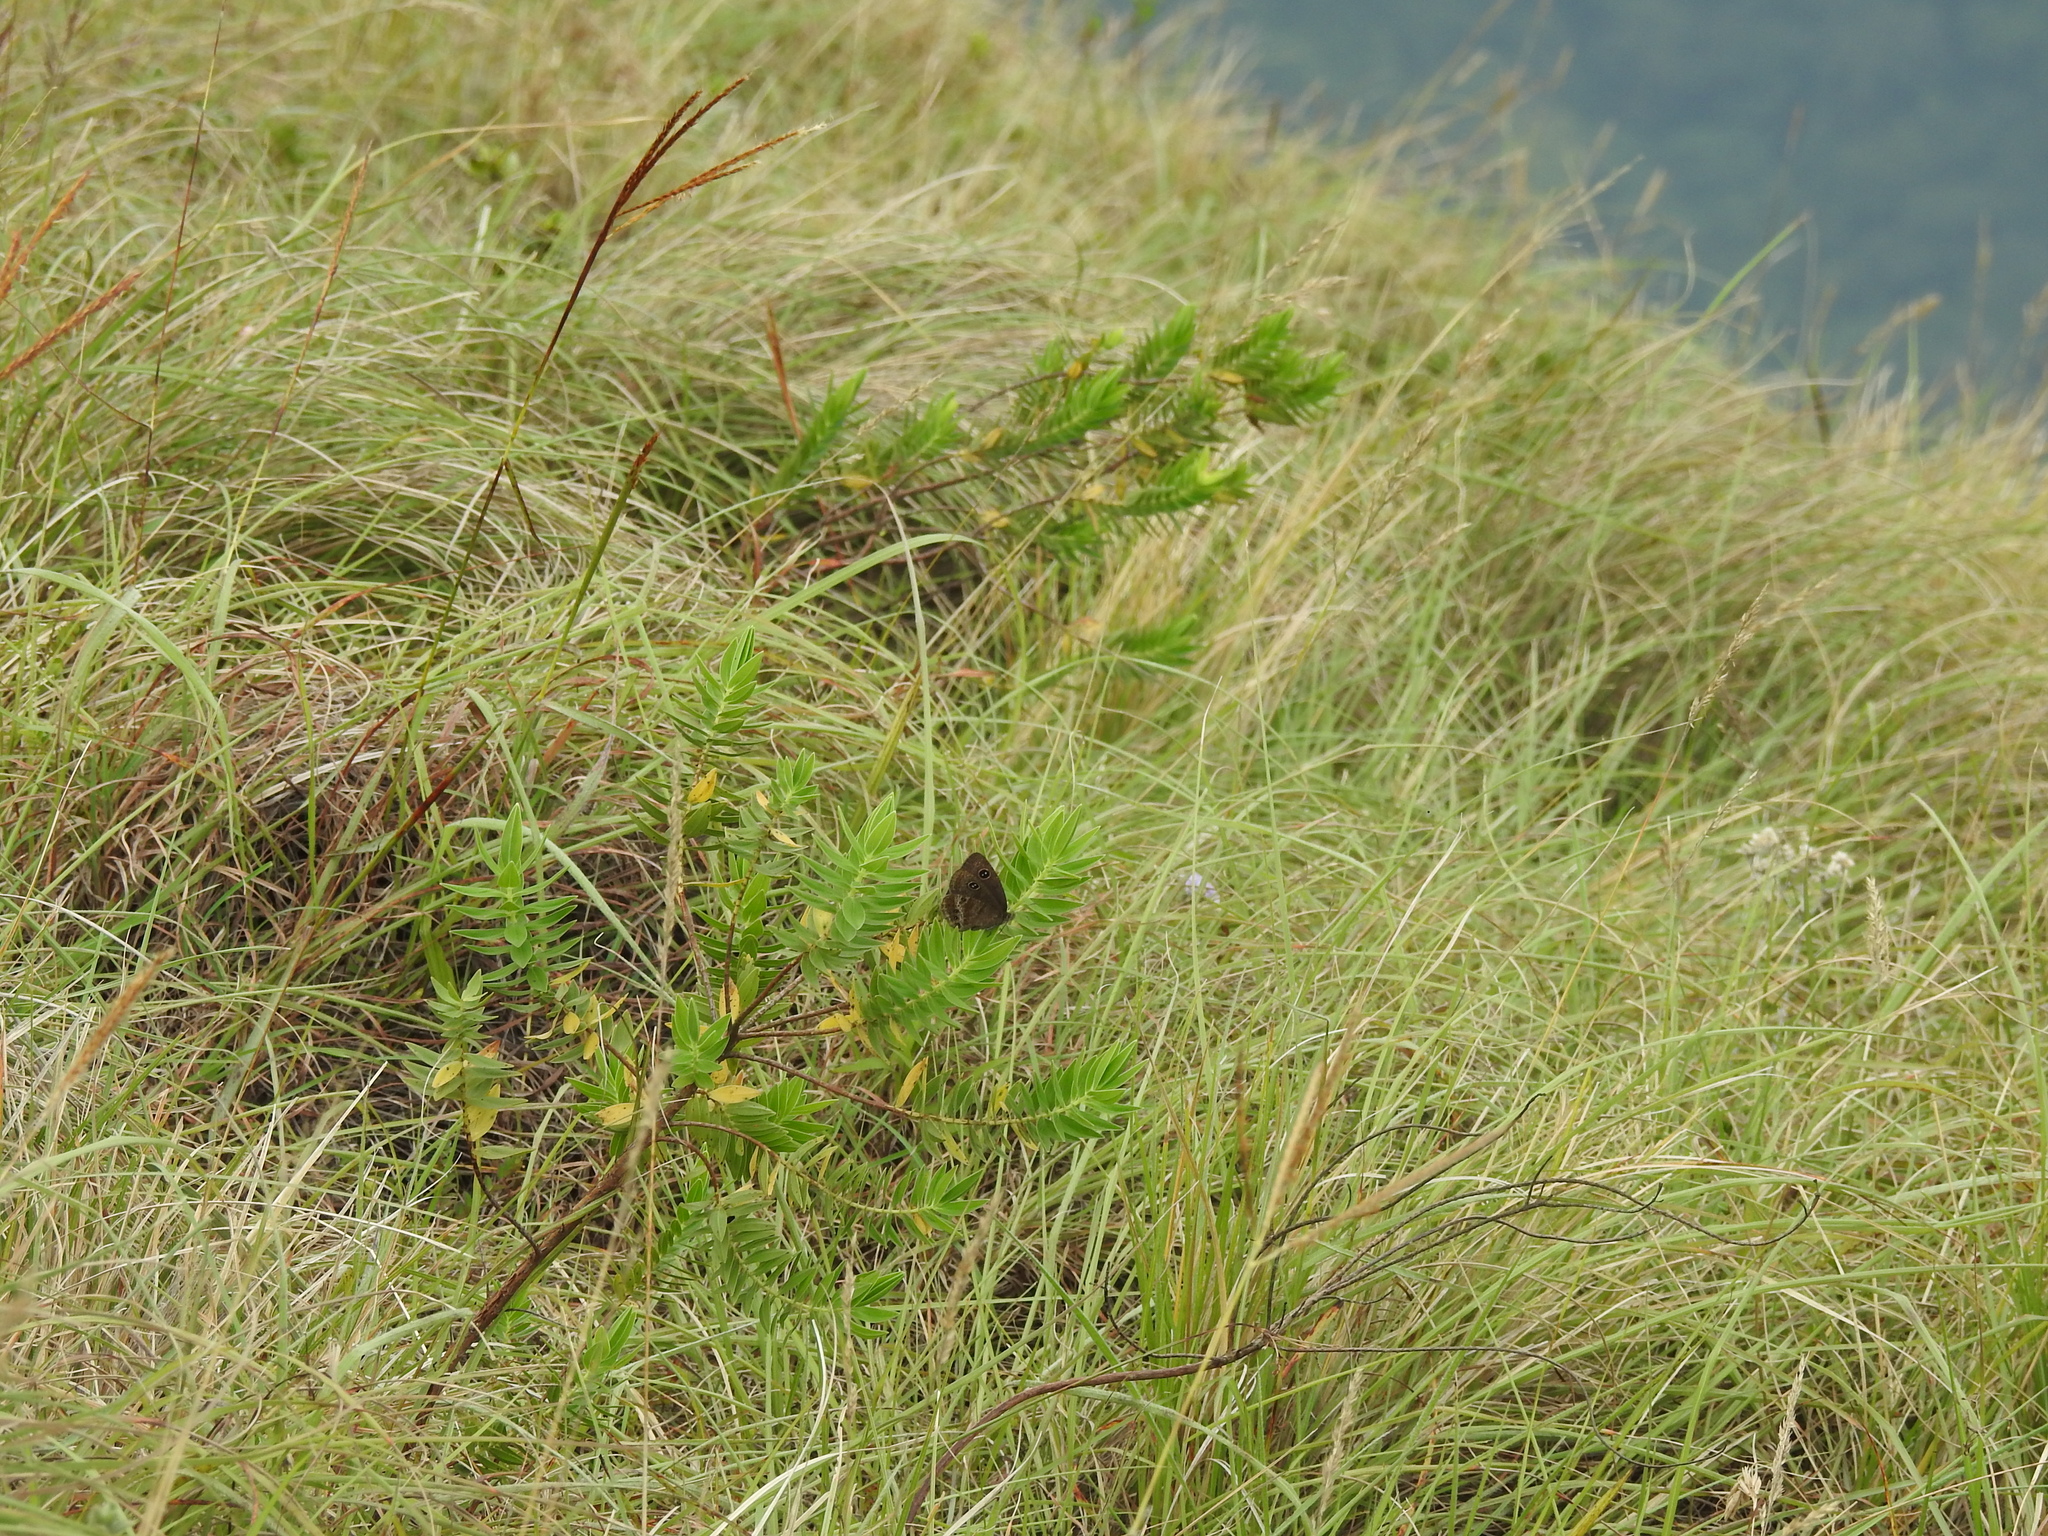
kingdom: Animalia
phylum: Arthropoda
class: Insecta
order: Lepidoptera
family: Nymphalidae
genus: Ypthima
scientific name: Ypthima ypthimoides
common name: Palni four-ring
